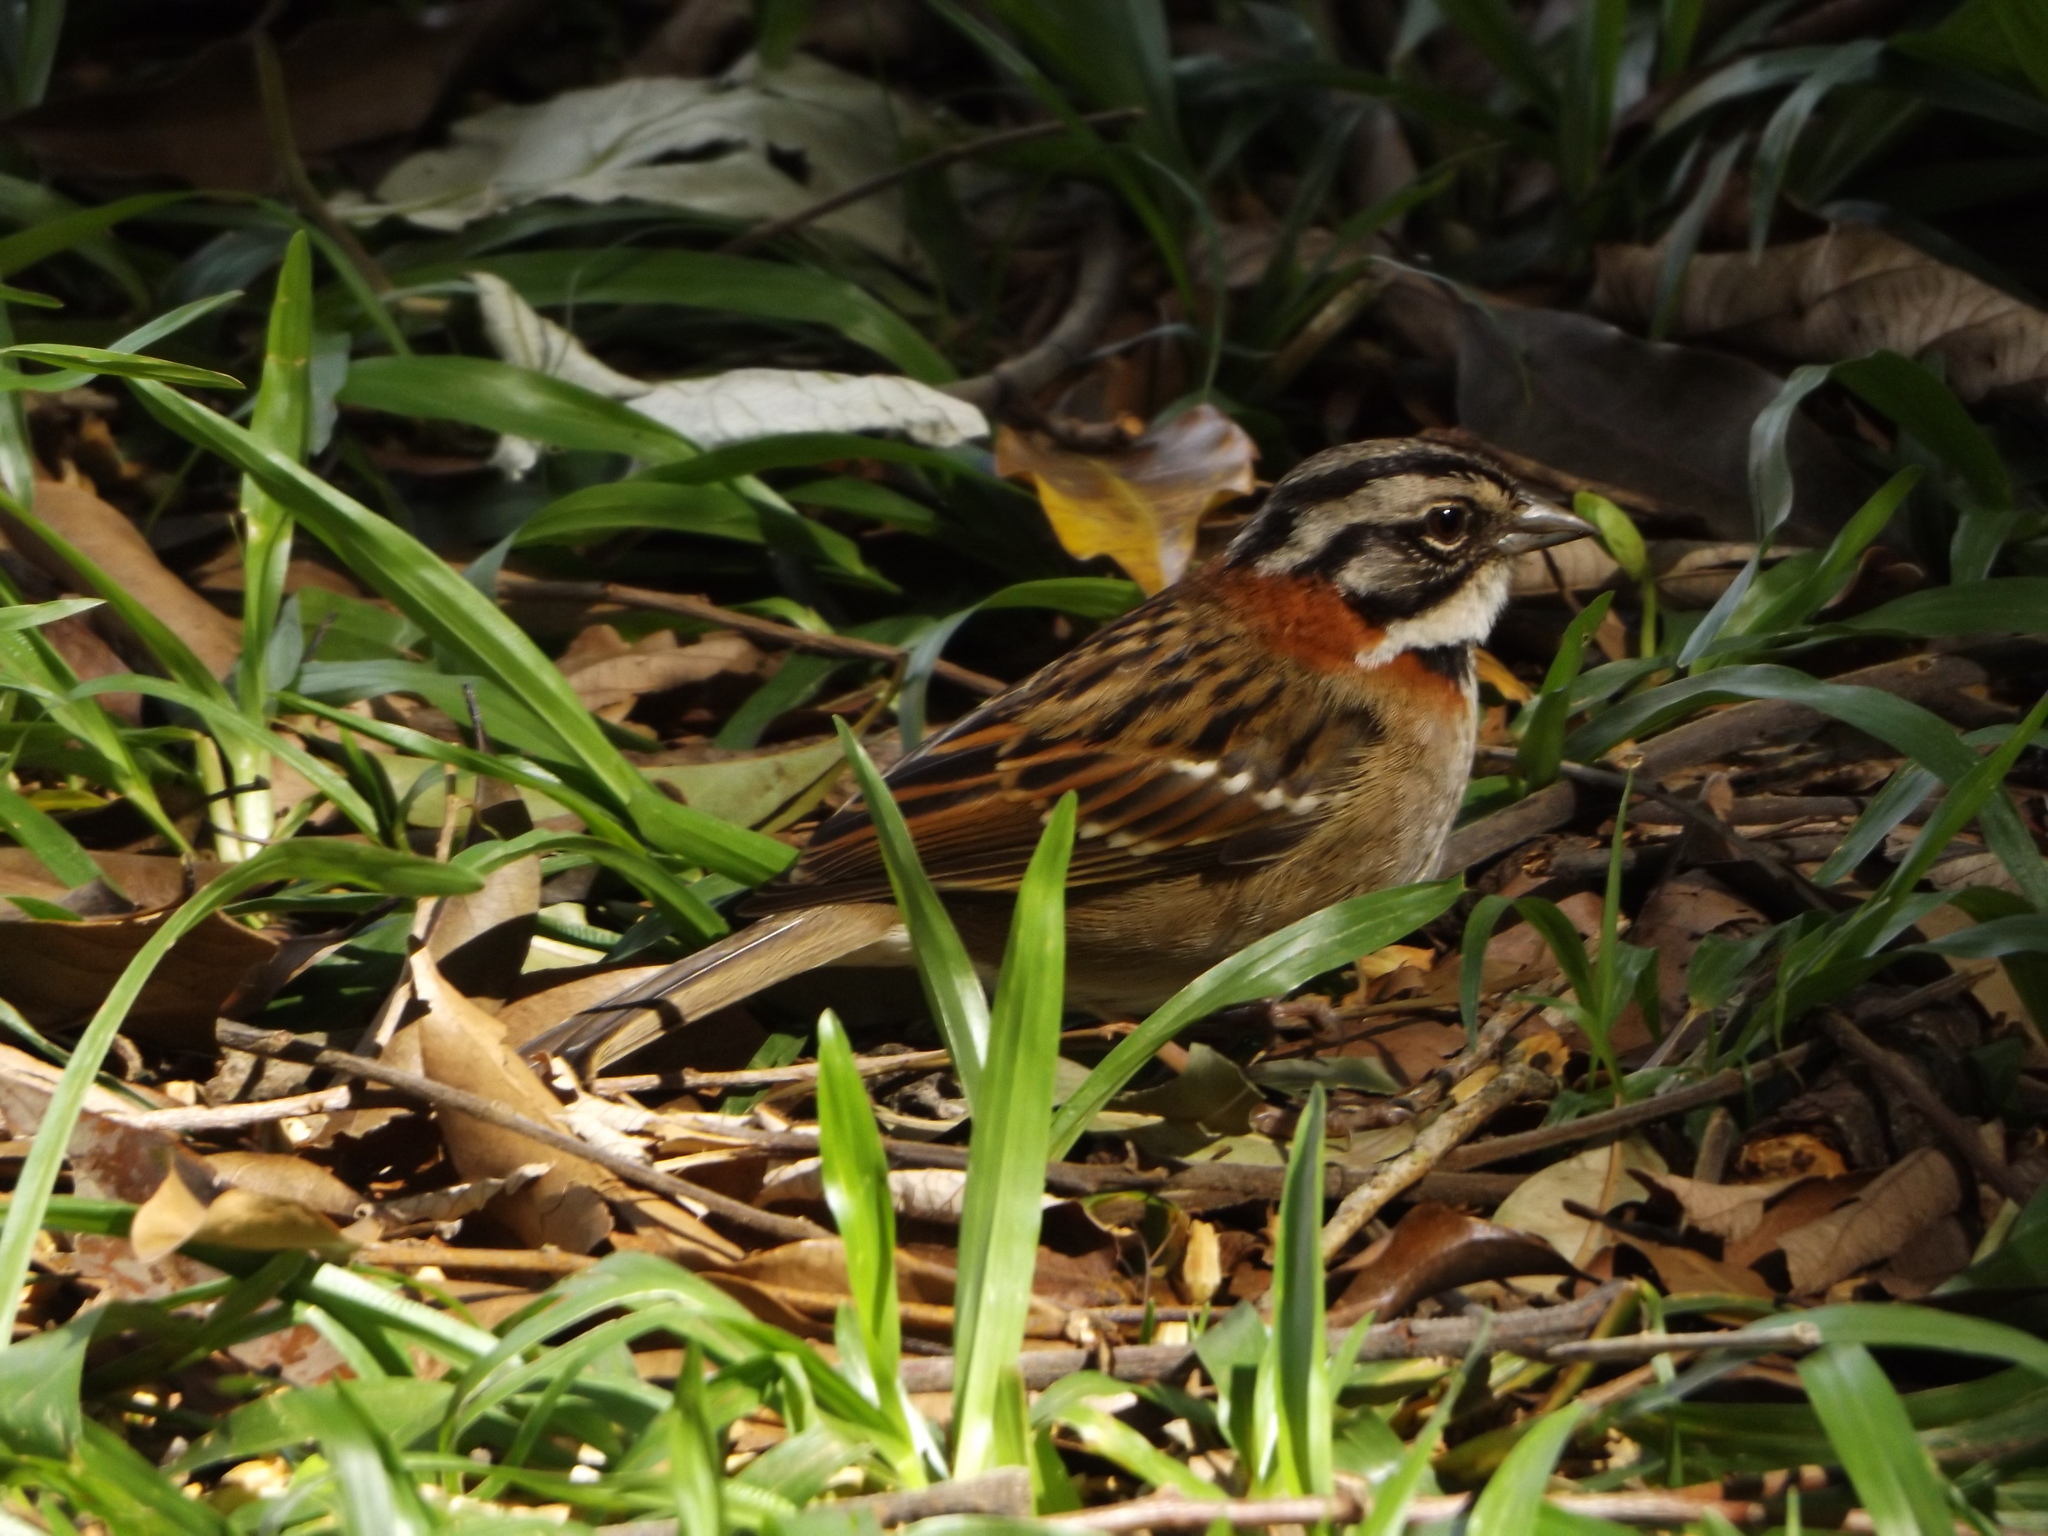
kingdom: Animalia
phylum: Chordata
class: Aves
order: Passeriformes
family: Passerellidae
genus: Zonotrichia
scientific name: Zonotrichia capensis
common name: Rufous-collared sparrow
